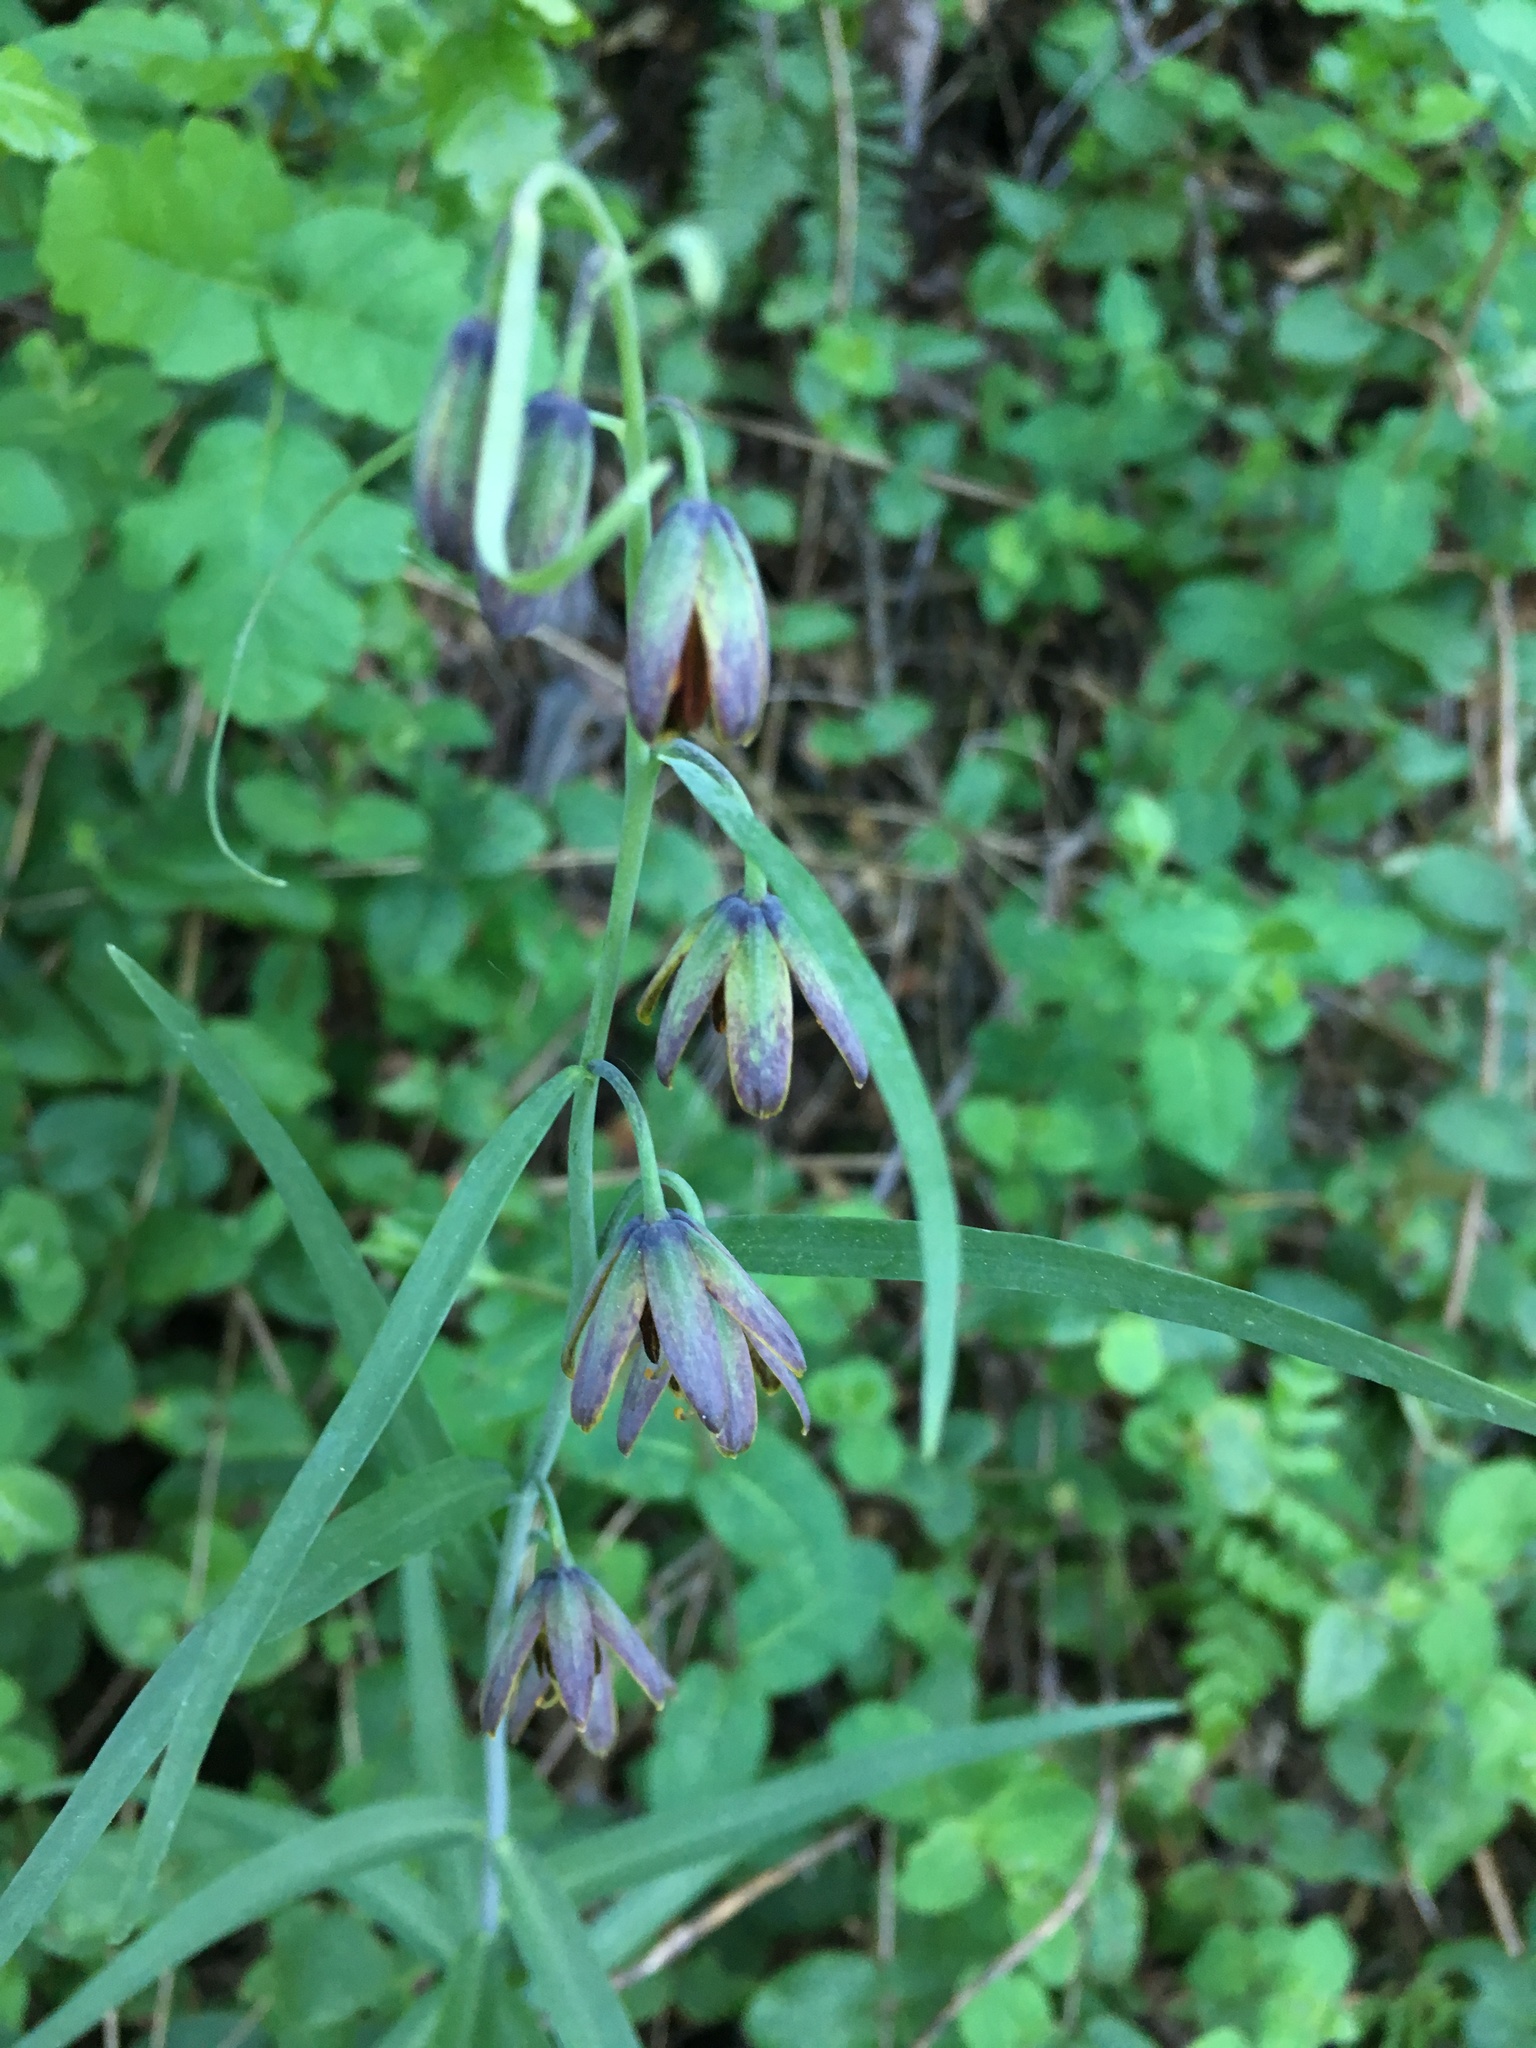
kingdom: Plantae
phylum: Tracheophyta
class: Liliopsida
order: Liliales
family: Liliaceae
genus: Fritillaria
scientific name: Fritillaria micrantha
